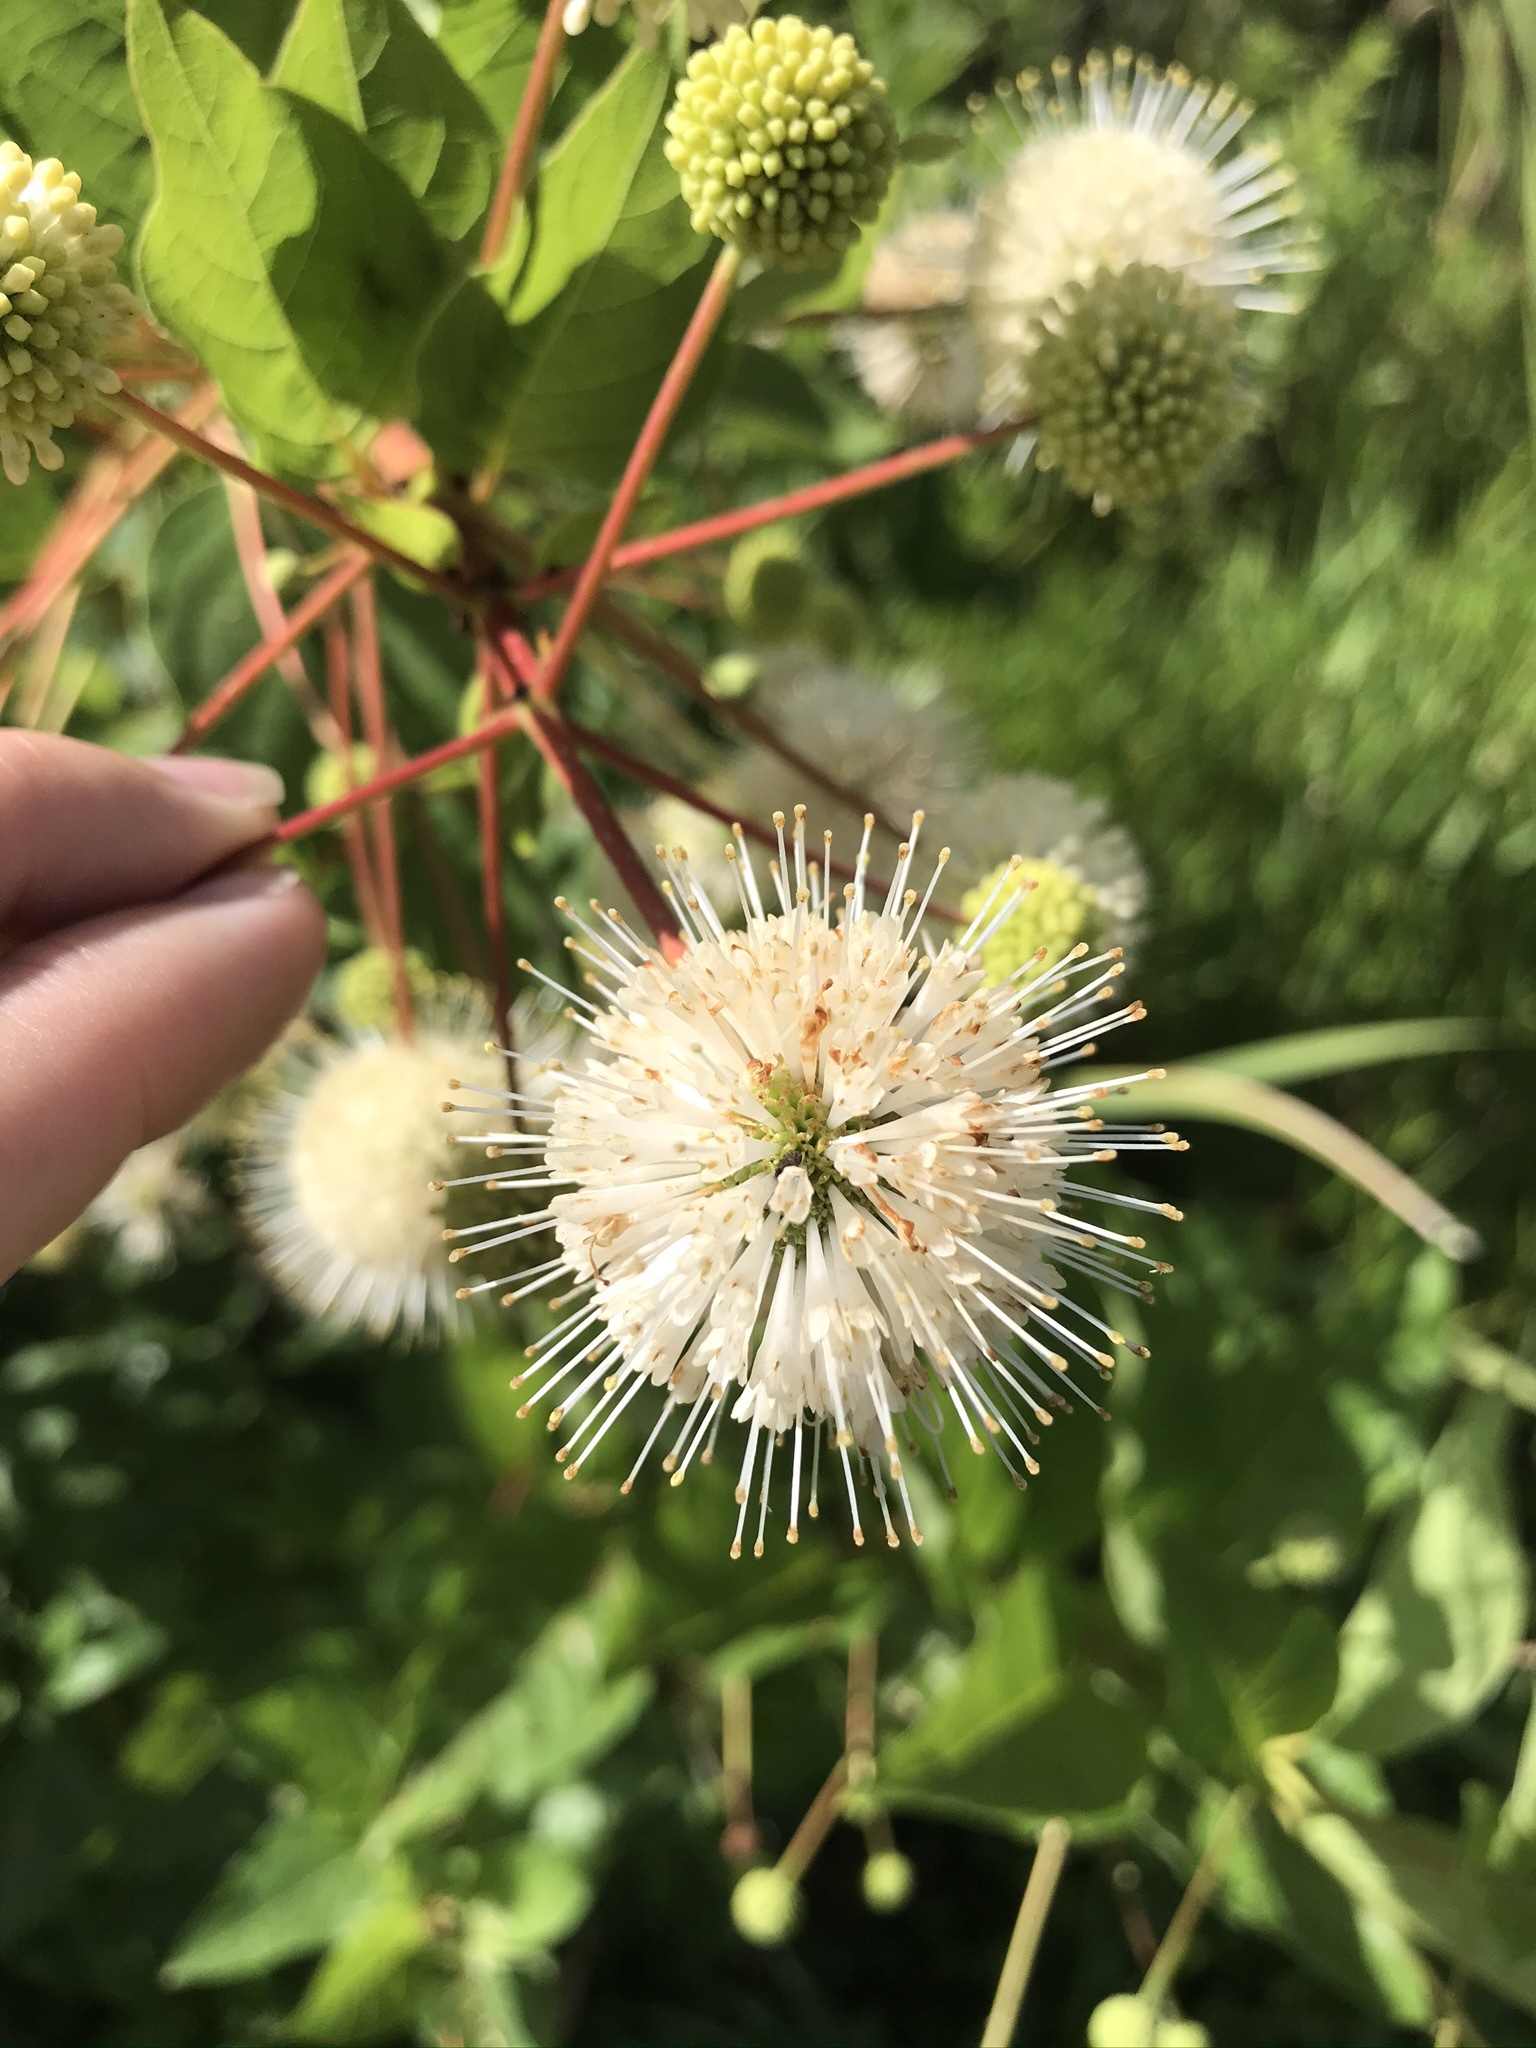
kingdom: Plantae
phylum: Tracheophyta
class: Magnoliopsida
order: Gentianales
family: Rubiaceae
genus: Cephalanthus
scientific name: Cephalanthus occidentalis
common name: Button-willow
